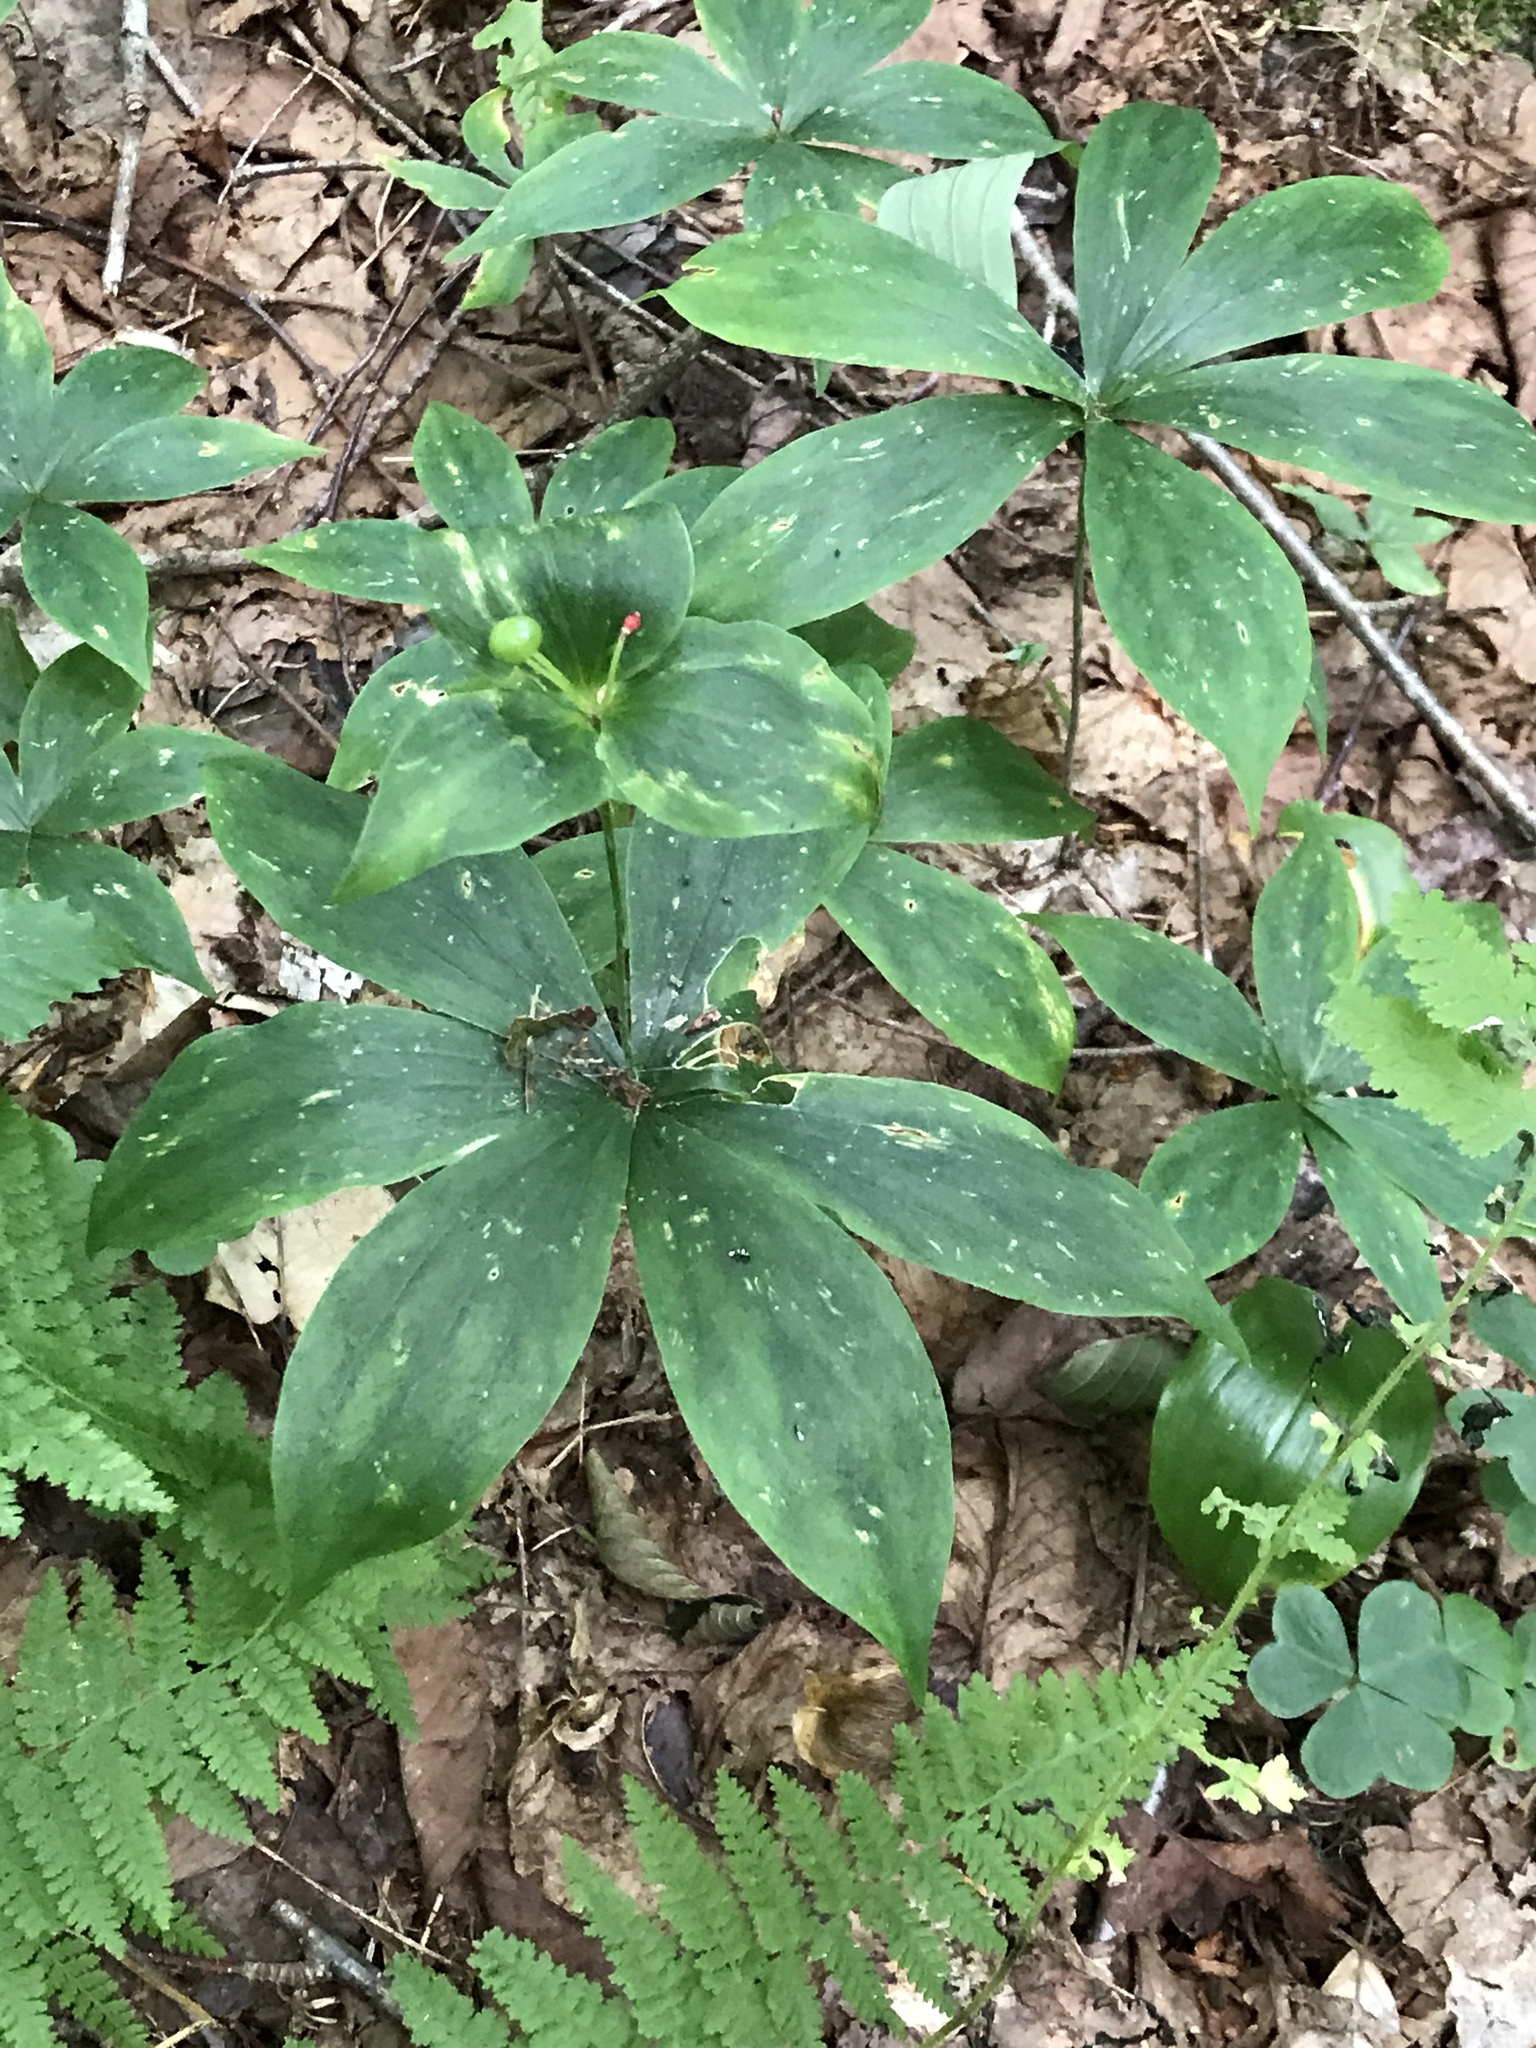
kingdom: Plantae
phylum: Tracheophyta
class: Liliopsida
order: Liliales
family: Liliaceae
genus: Medeola
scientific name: Medeola virginiana
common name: Indian cucumber-root
